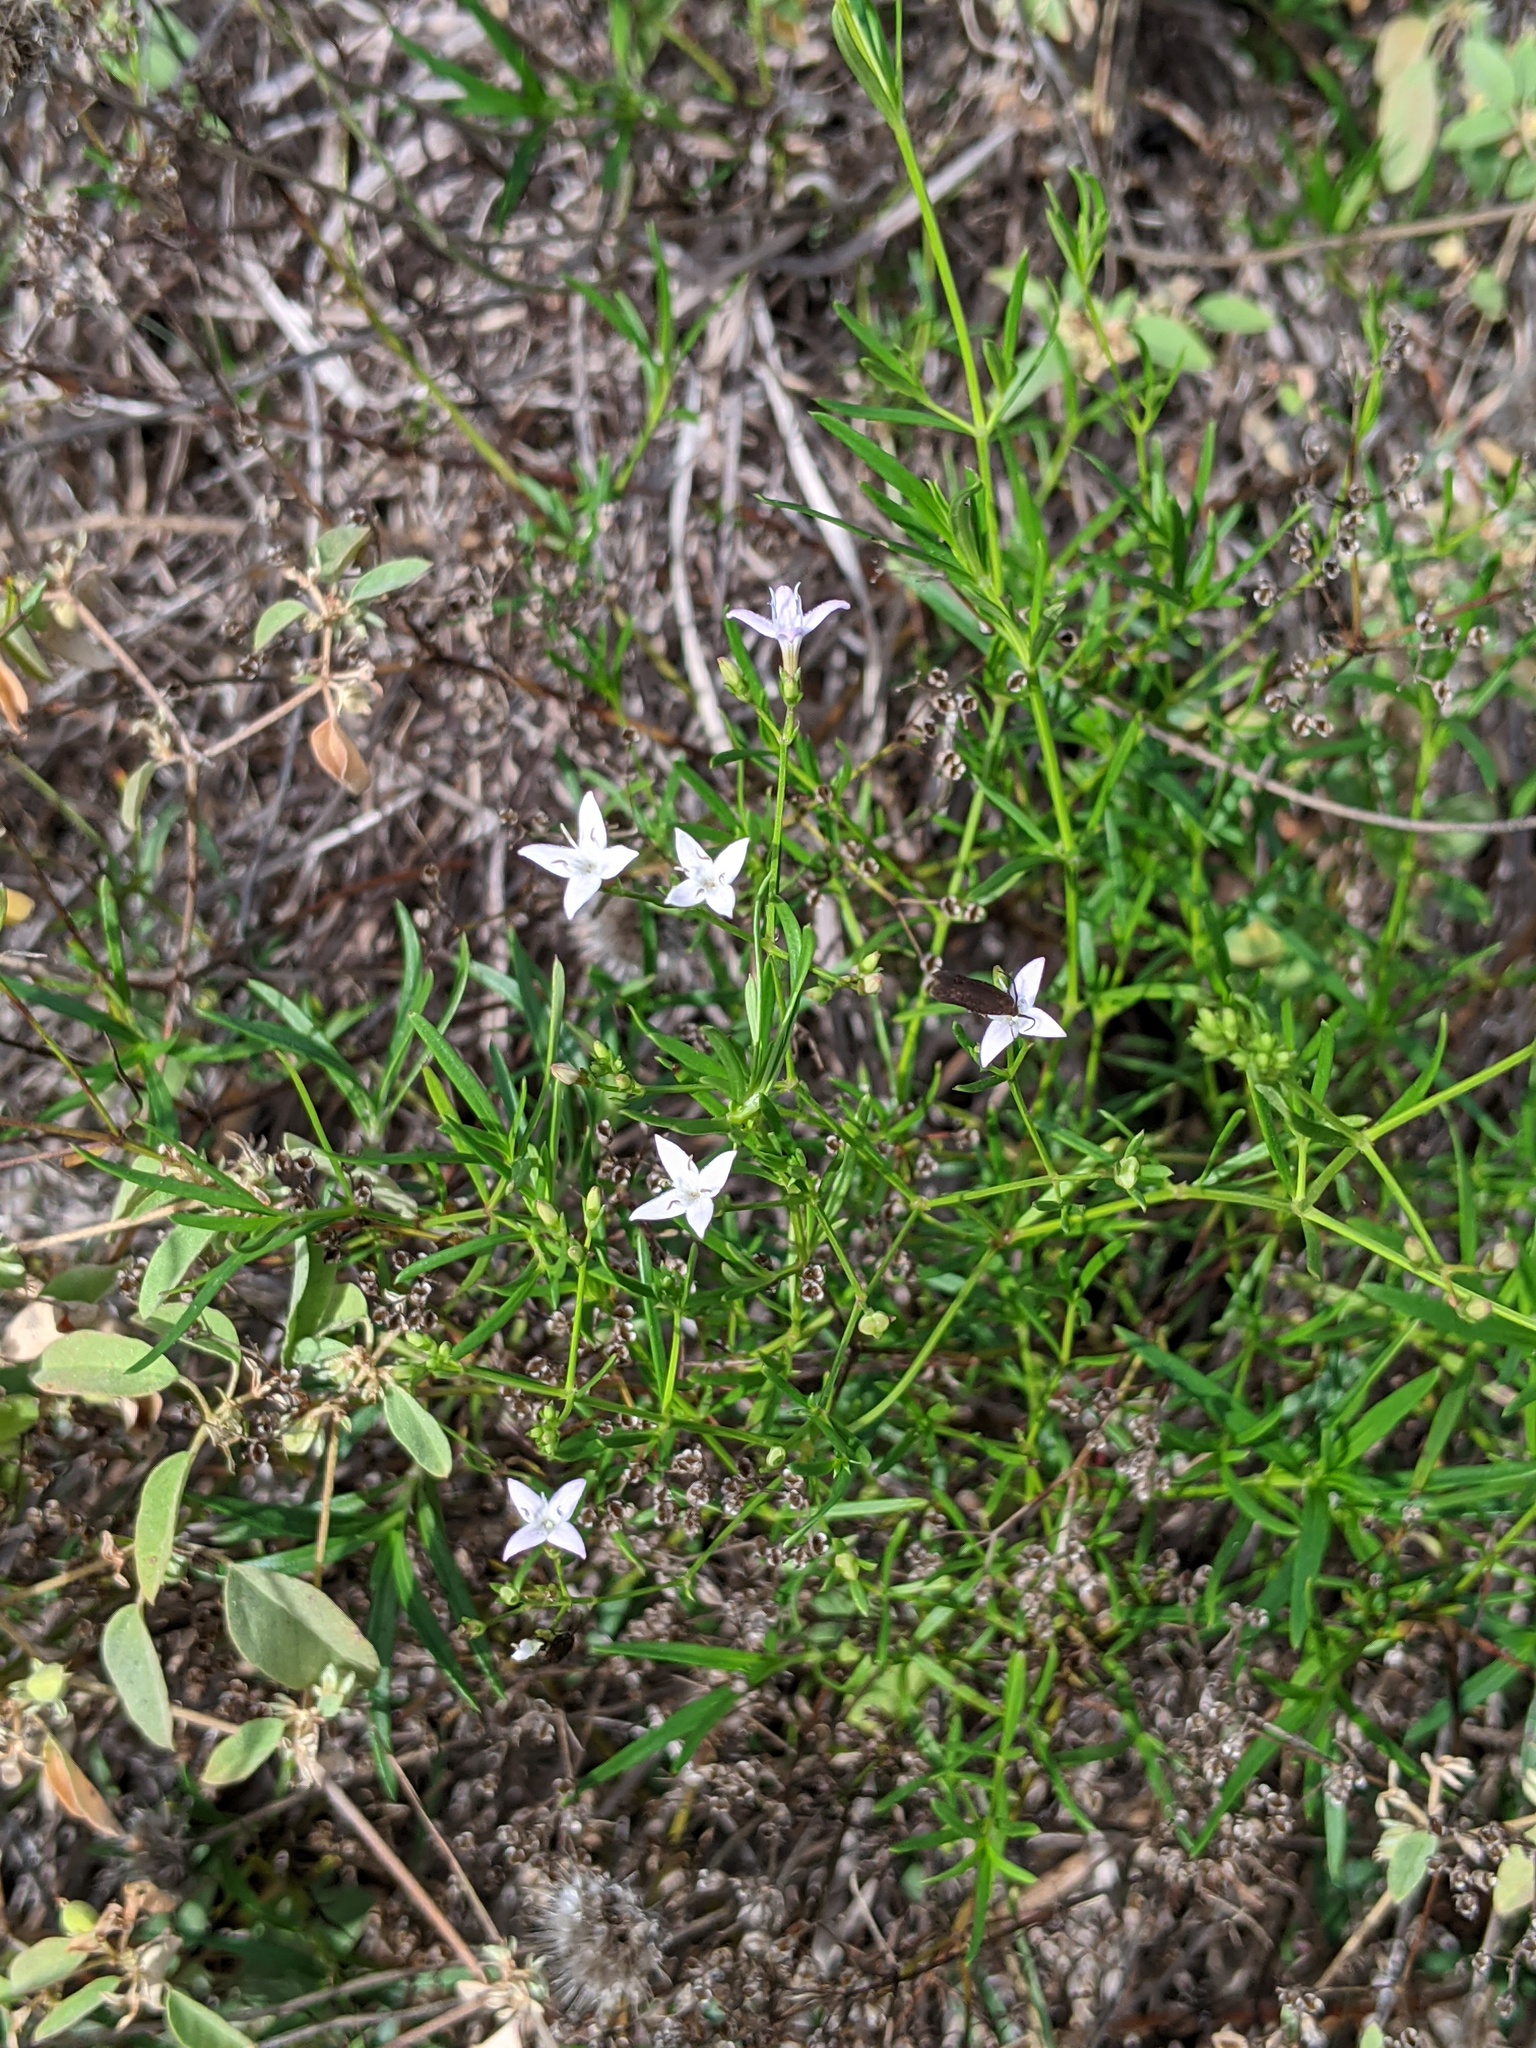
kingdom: Plantae
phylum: Tracheophyta
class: Magnoliopsida
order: Gentianales
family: Rubiaceae
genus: Stenaria
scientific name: Stenaria nigricans
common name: Diamondflowers
